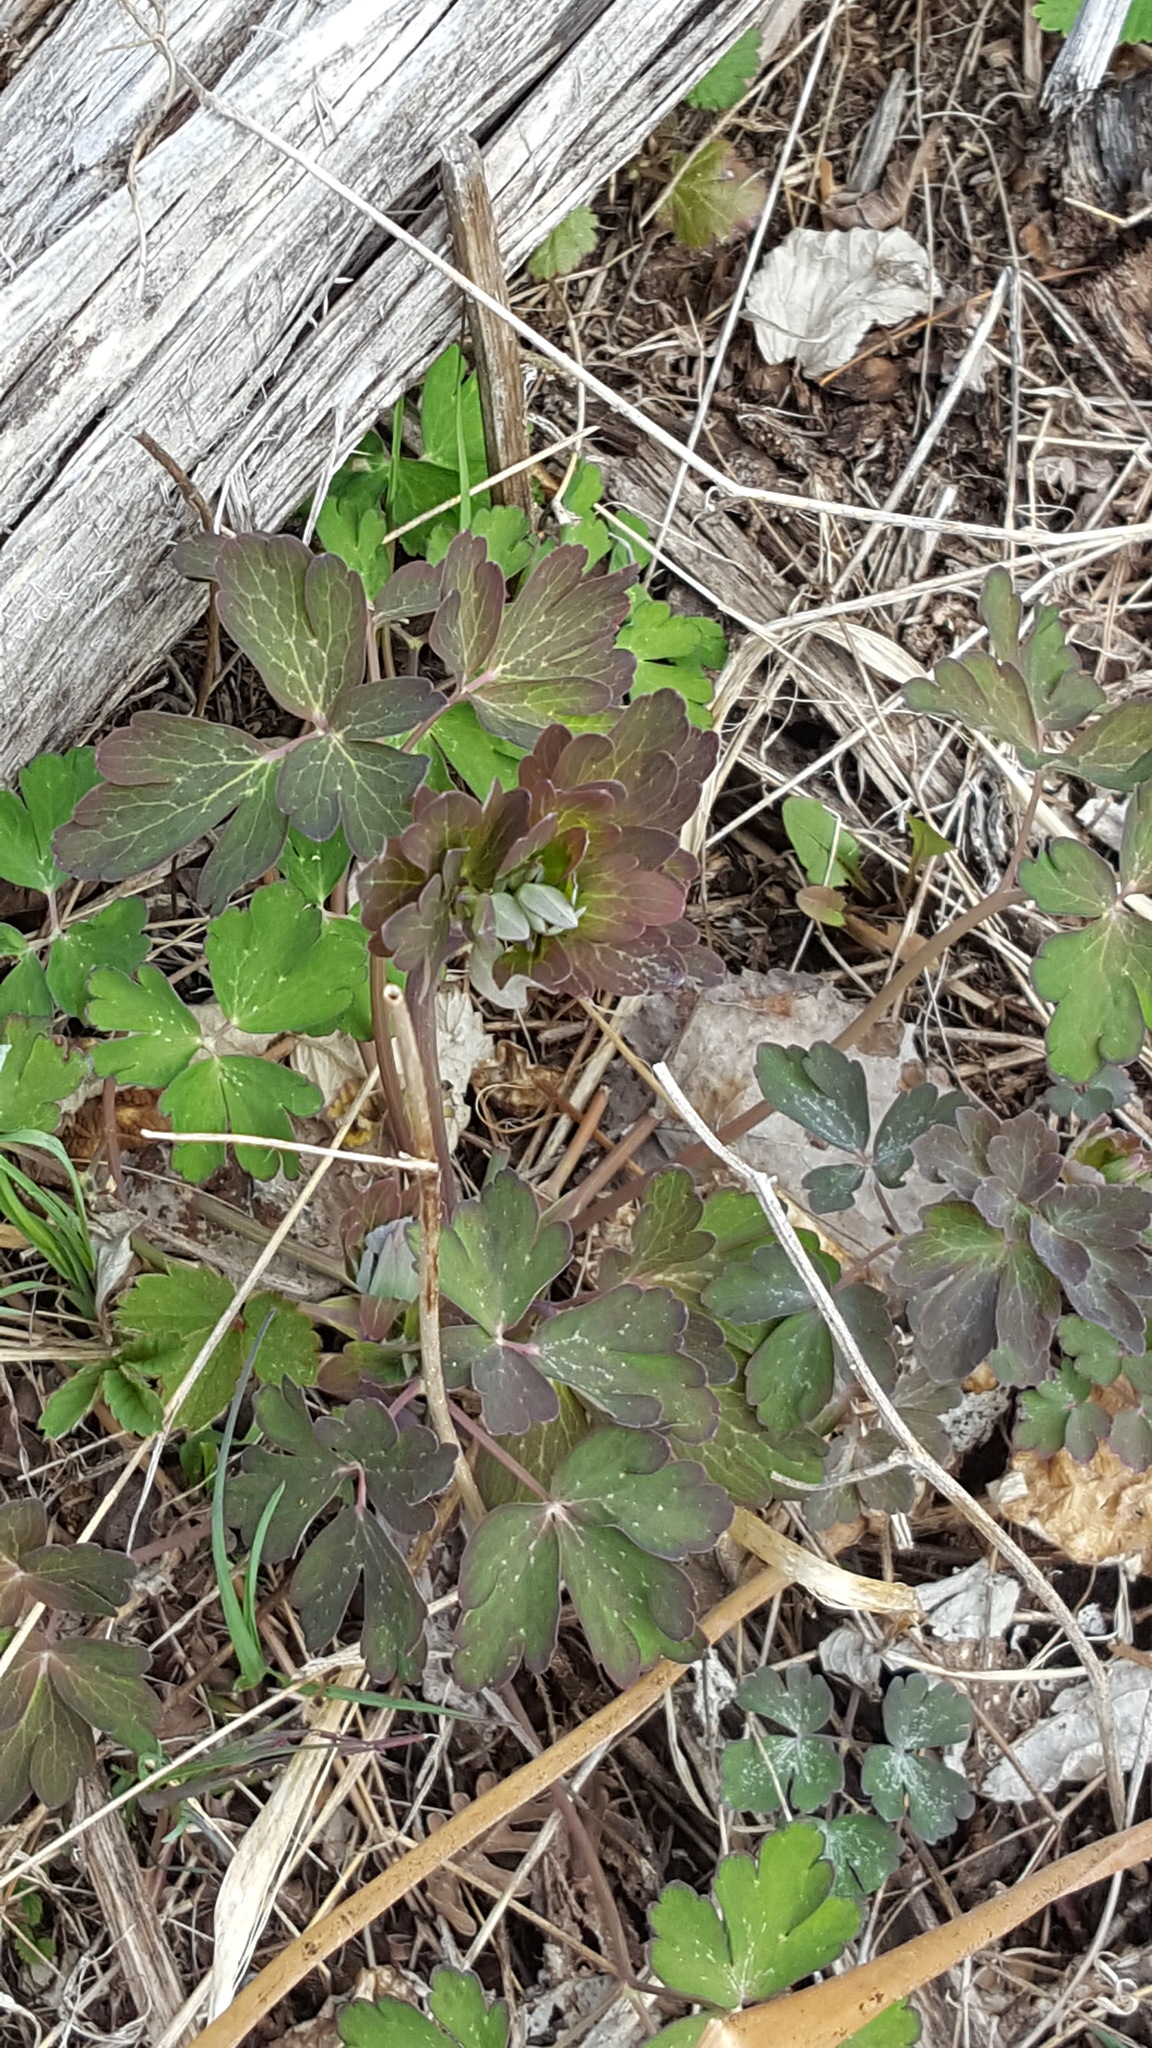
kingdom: Plantae
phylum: Tracheophyta
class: Magnoliopsida
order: Ranunculales
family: Ranunculaceae
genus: Aquilegia
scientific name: Aquilegia canadensis
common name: American columbine
